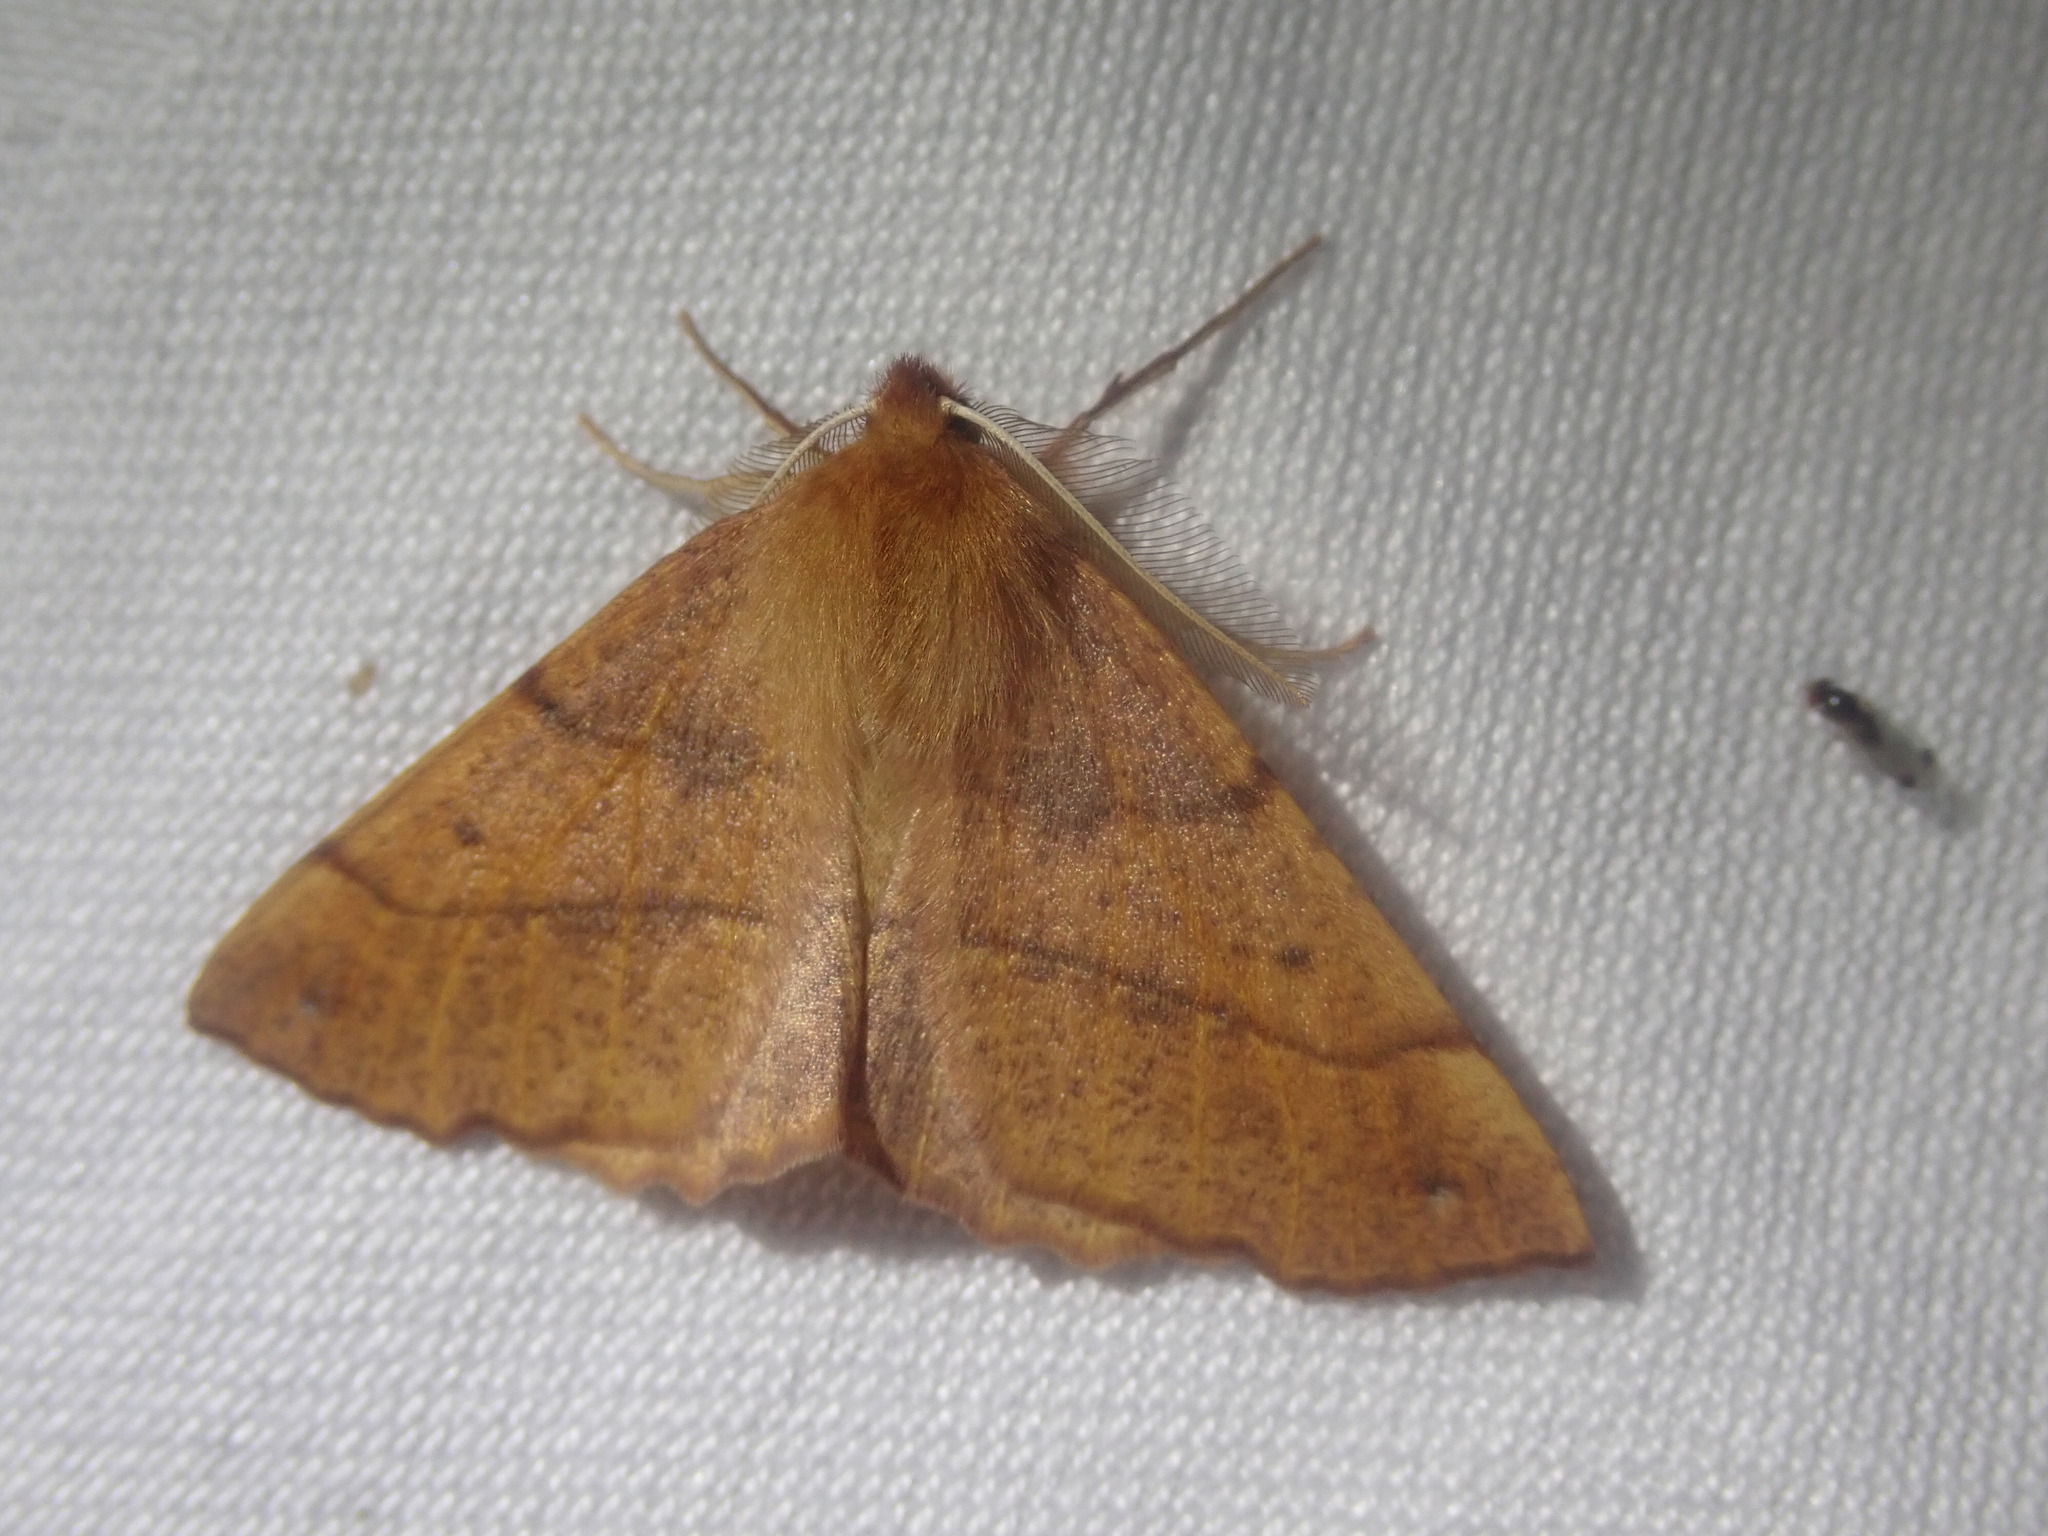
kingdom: Animalia
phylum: Arthropoda
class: Insecta
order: Lepidoptera
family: Geometridae
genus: Colotois
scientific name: Colotois pennaria
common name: Feathered thorn
